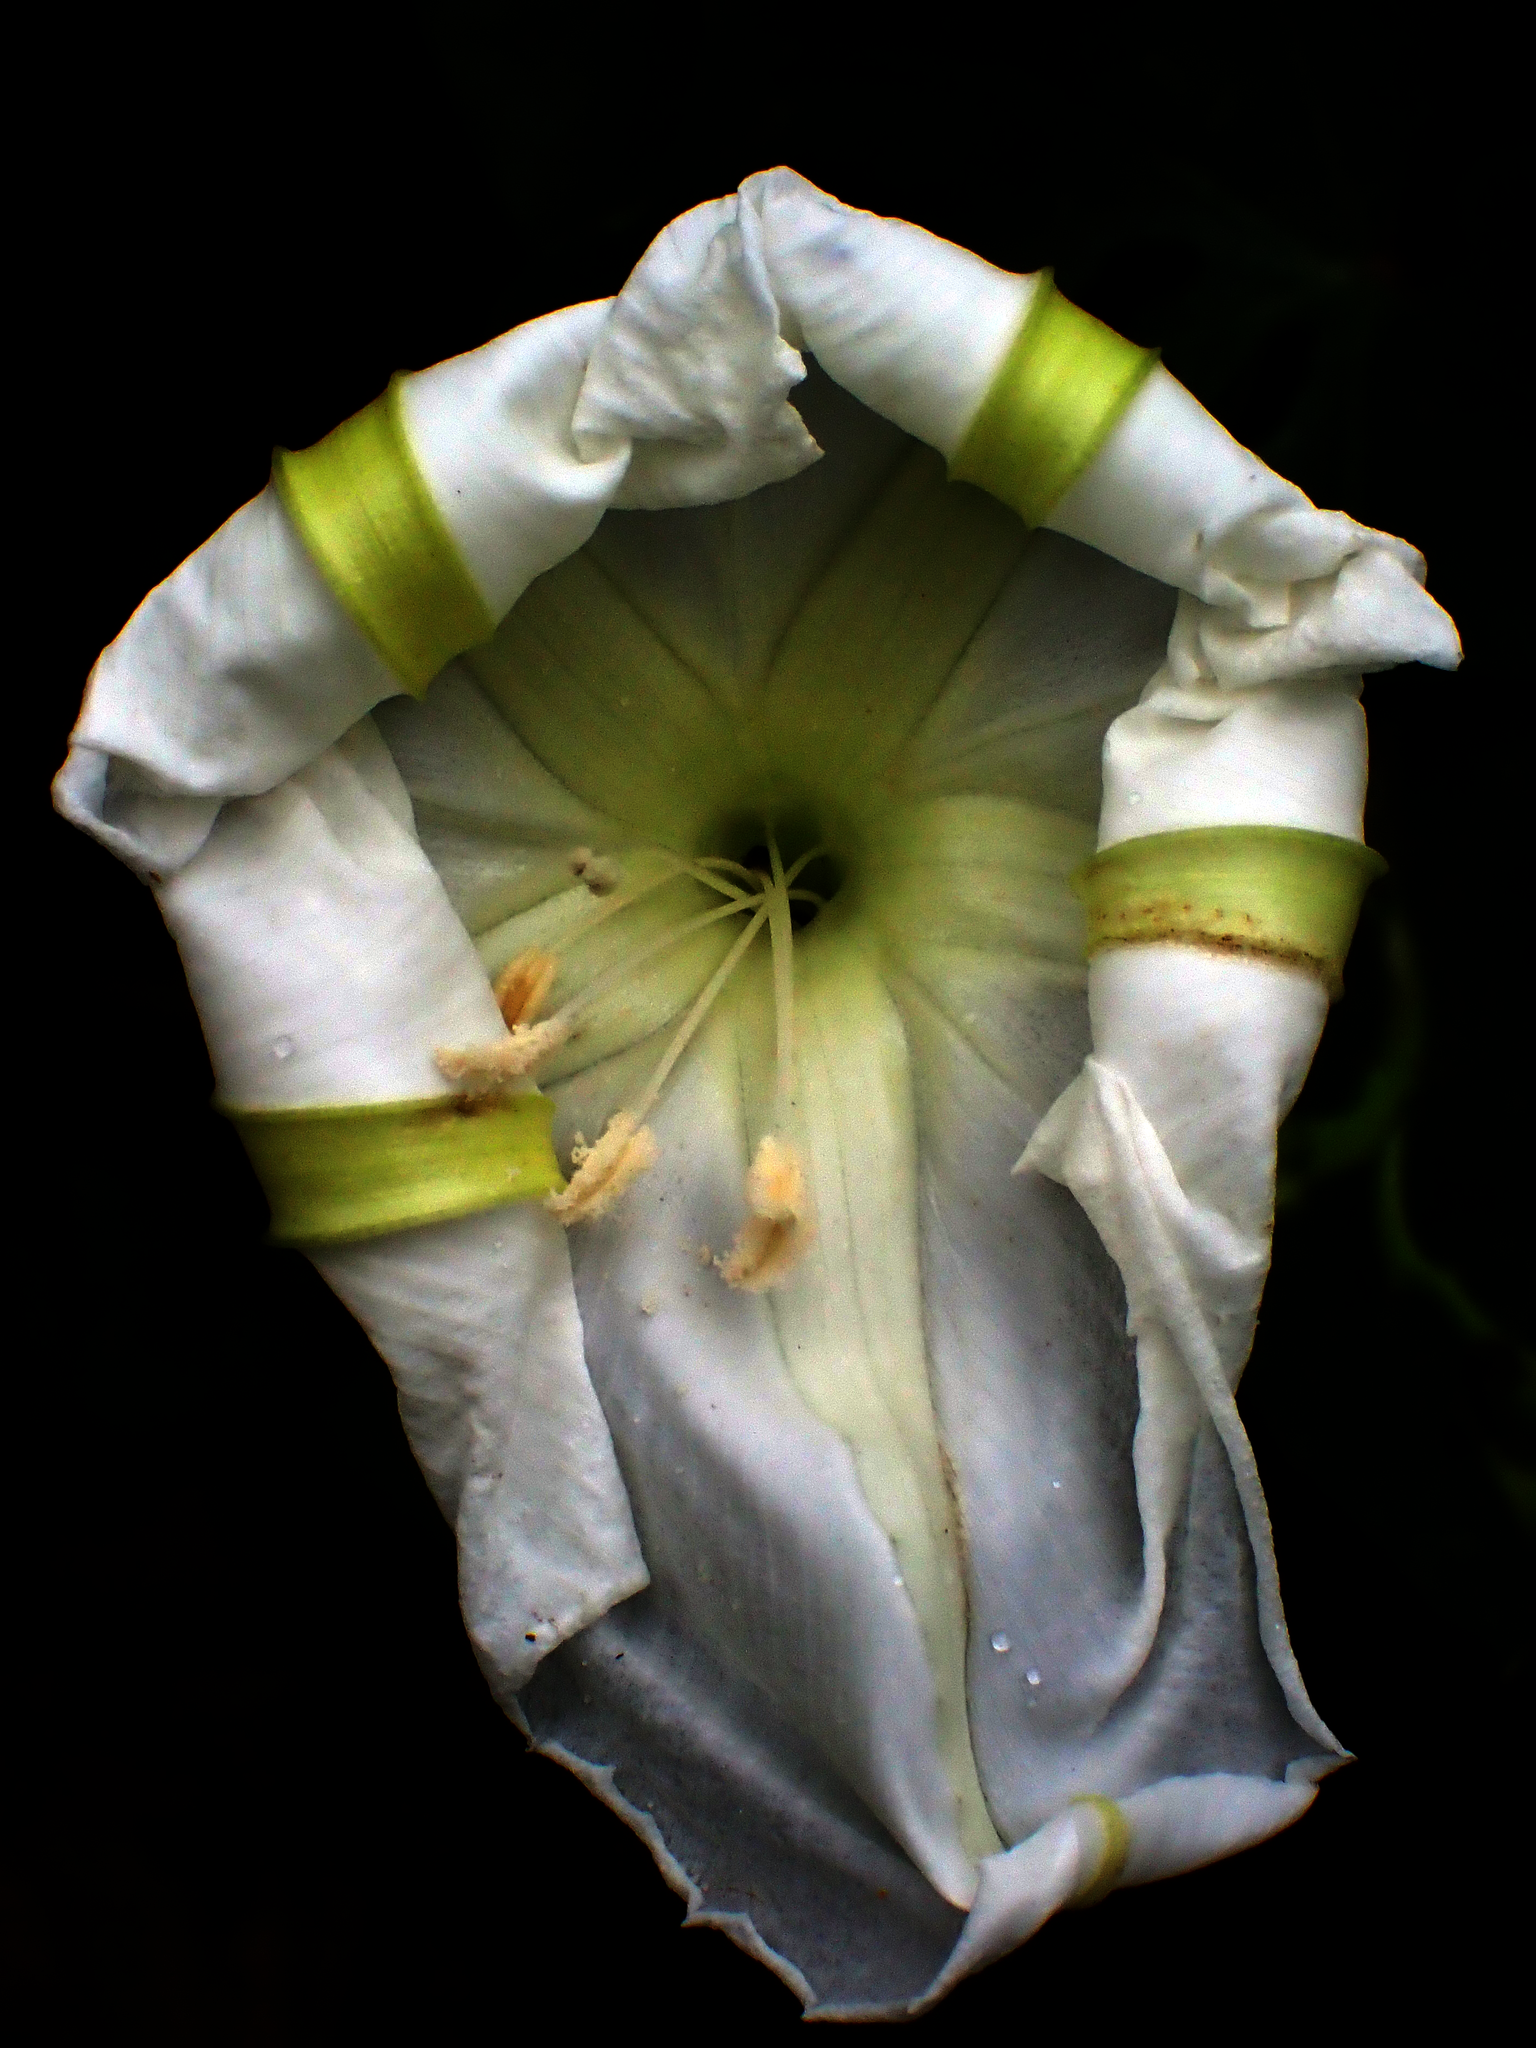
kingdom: Plantae
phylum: Tracheophyta
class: Magnoliopsida
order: Solanales
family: Convolvulaceae
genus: Ipomoea
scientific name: Ipomoea alba
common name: Moonflower
